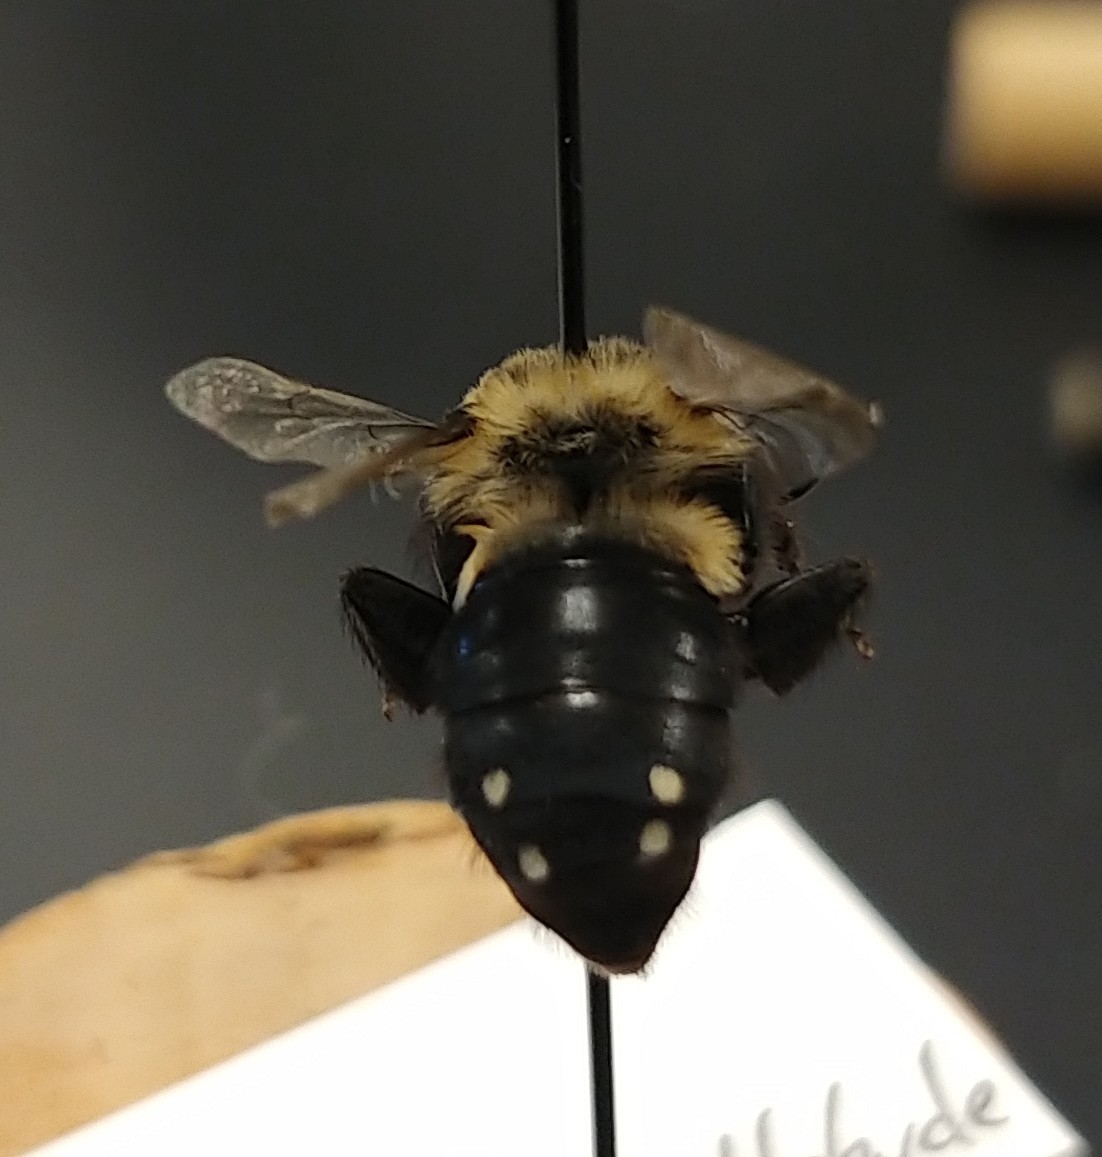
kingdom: Animalia
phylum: Arthropoda
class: Insecta
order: Hymenoptera
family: Apidae
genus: Melecta
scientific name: Melecta separata
